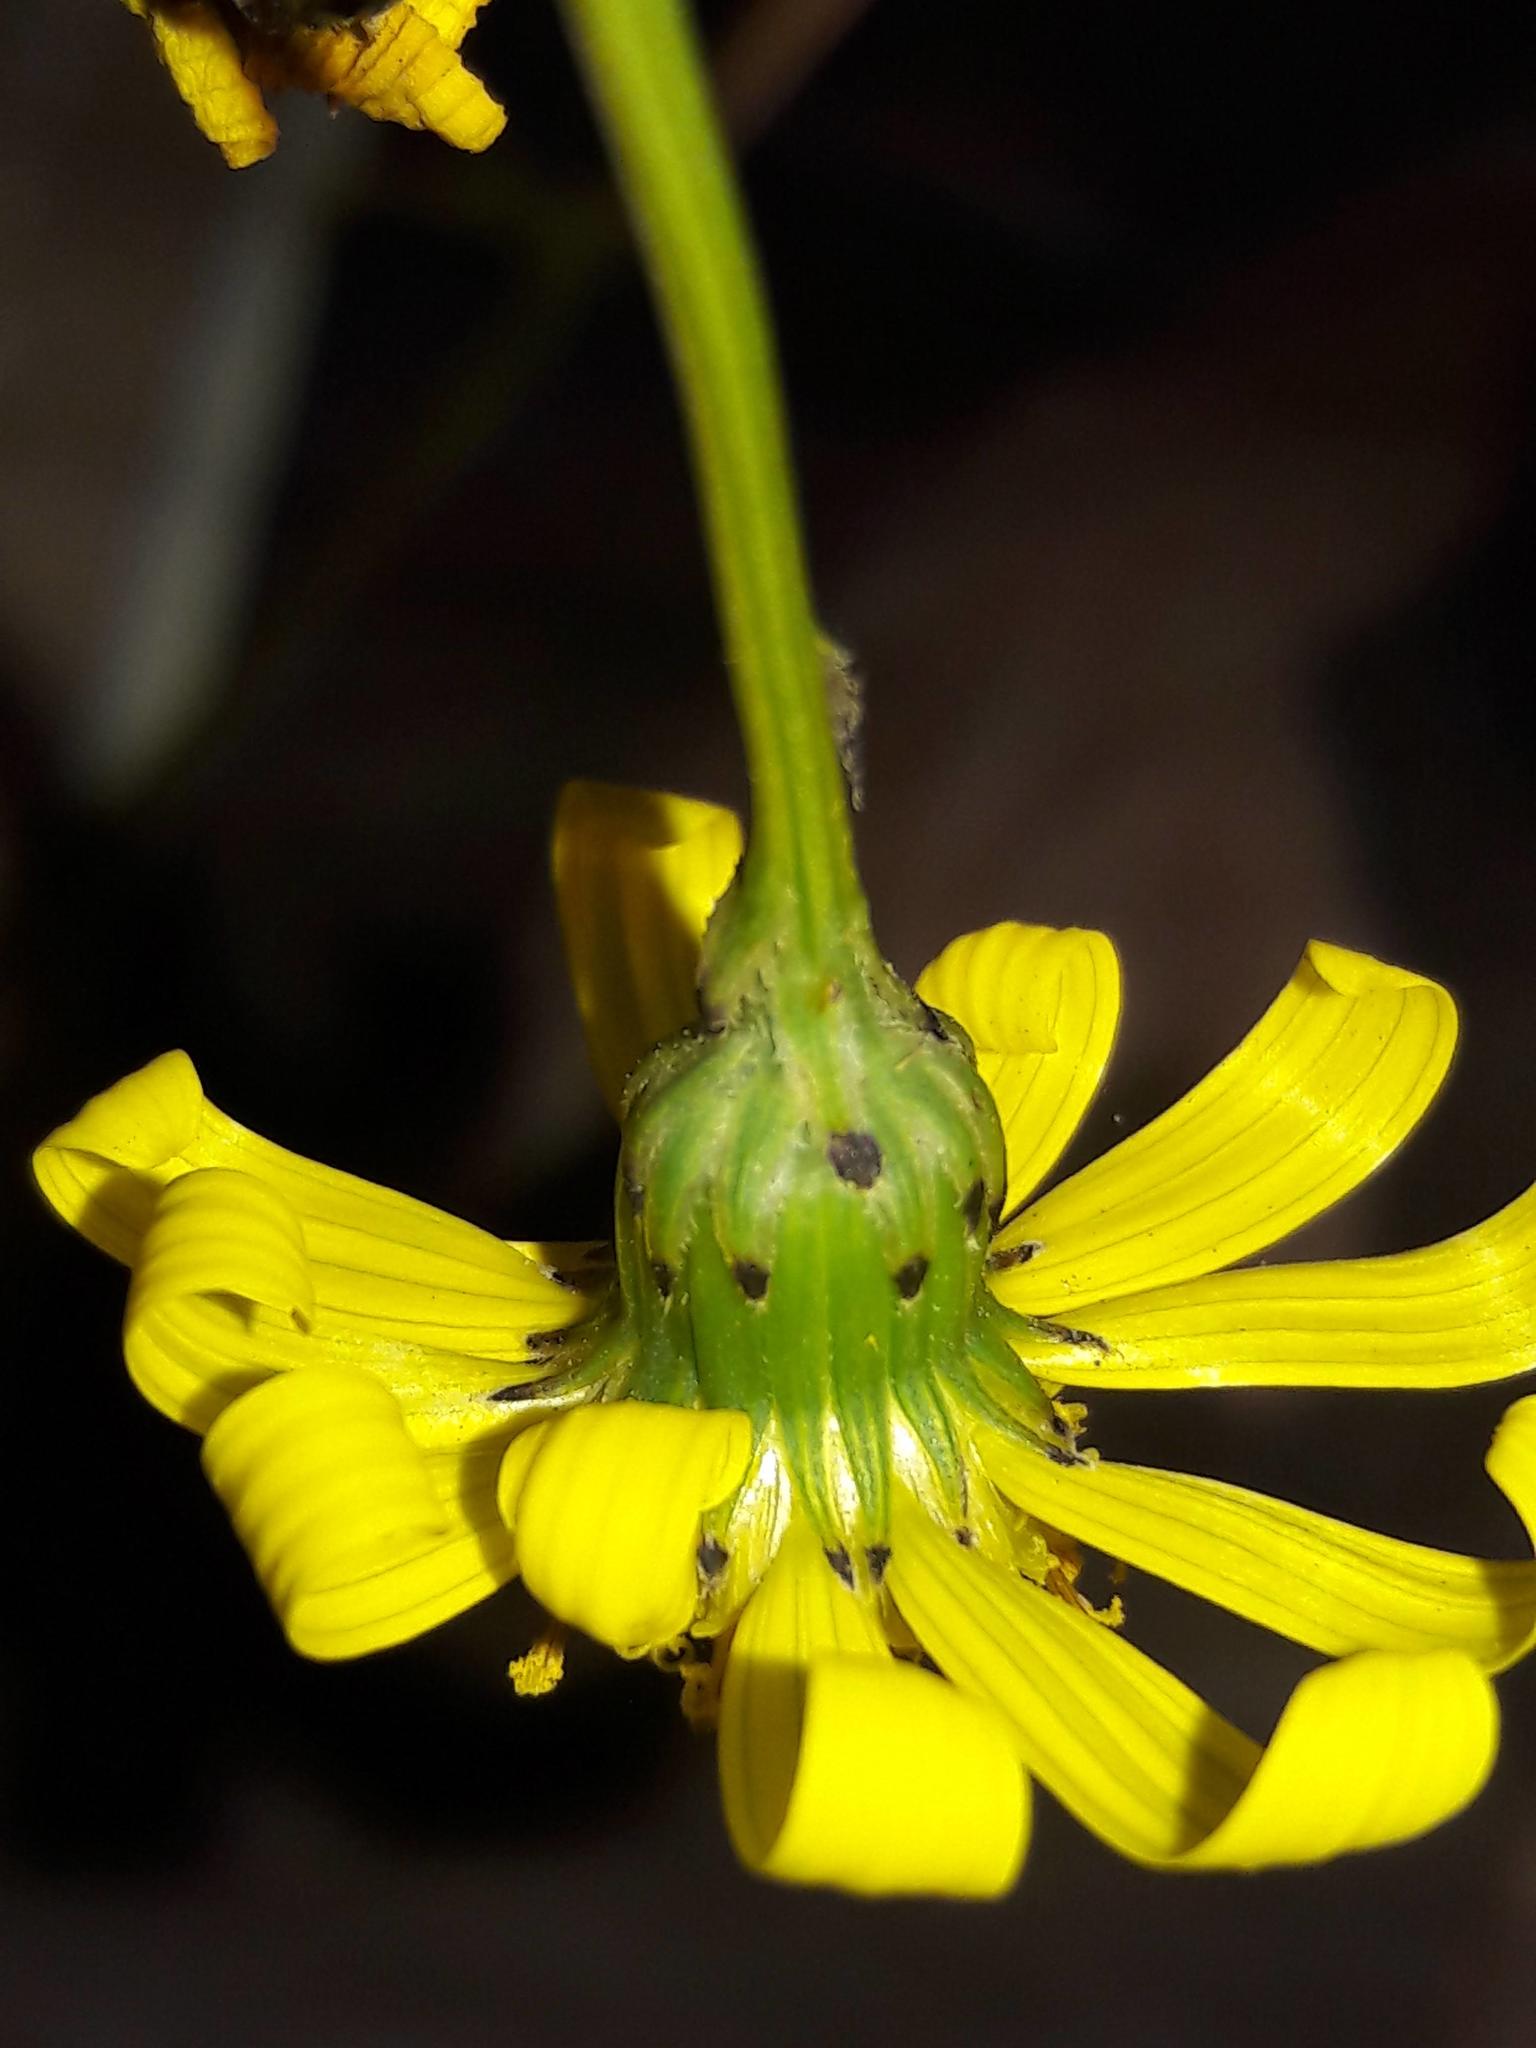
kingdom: Plantae
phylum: Tracheophyta
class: Magnoliopsida
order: Asterales
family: Asteraceae
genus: Senecio
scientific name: Senecio inaequidens
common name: Narrow-leaved ragwort
